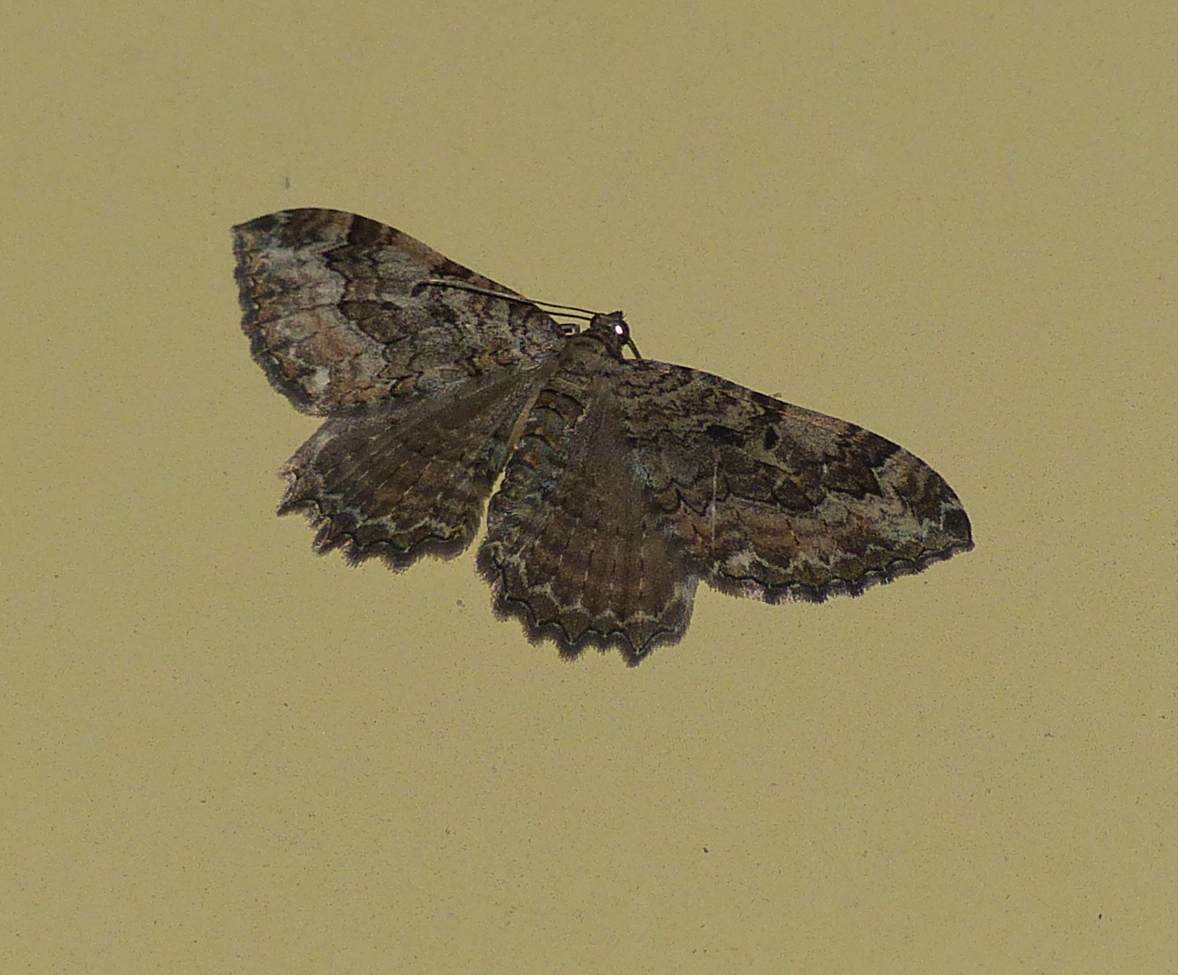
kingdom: Animalia
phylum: Arthropoda
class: Insecta
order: Lepidoptera
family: Geometridae
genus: Rheumaptera
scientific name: Rheumaptera
